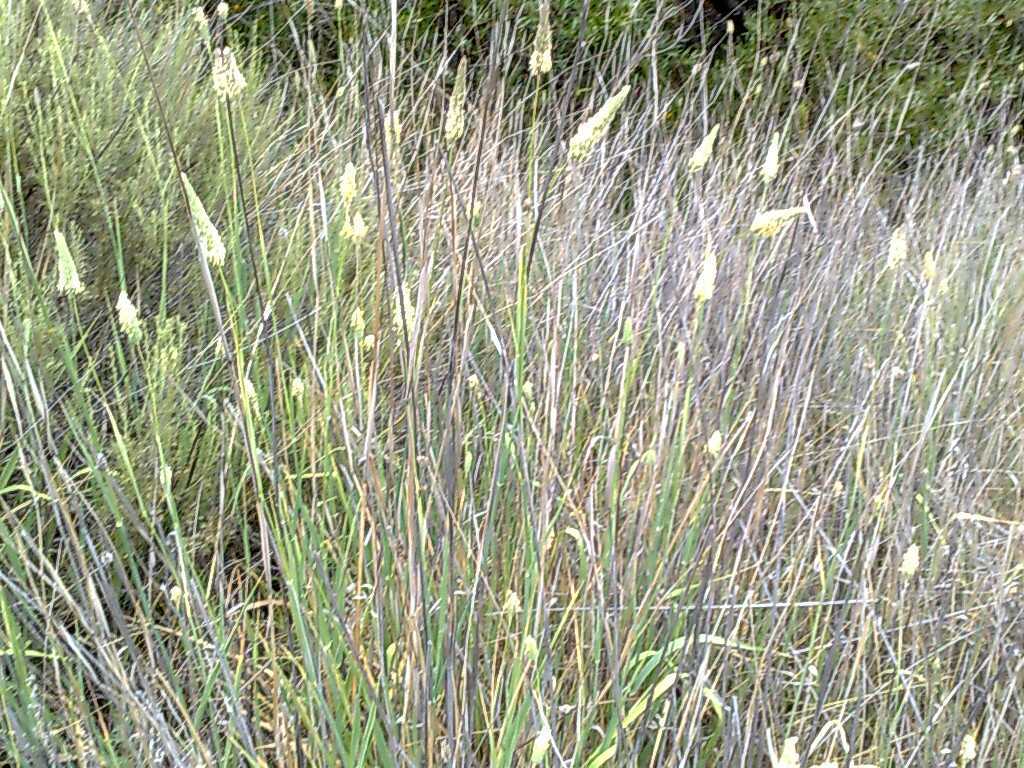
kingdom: Plantae
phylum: Tracheophyta
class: Magnoliopsida
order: Asterales
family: Asteraceae
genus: Artemisia
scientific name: Artemisia californica
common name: California sagebrush
